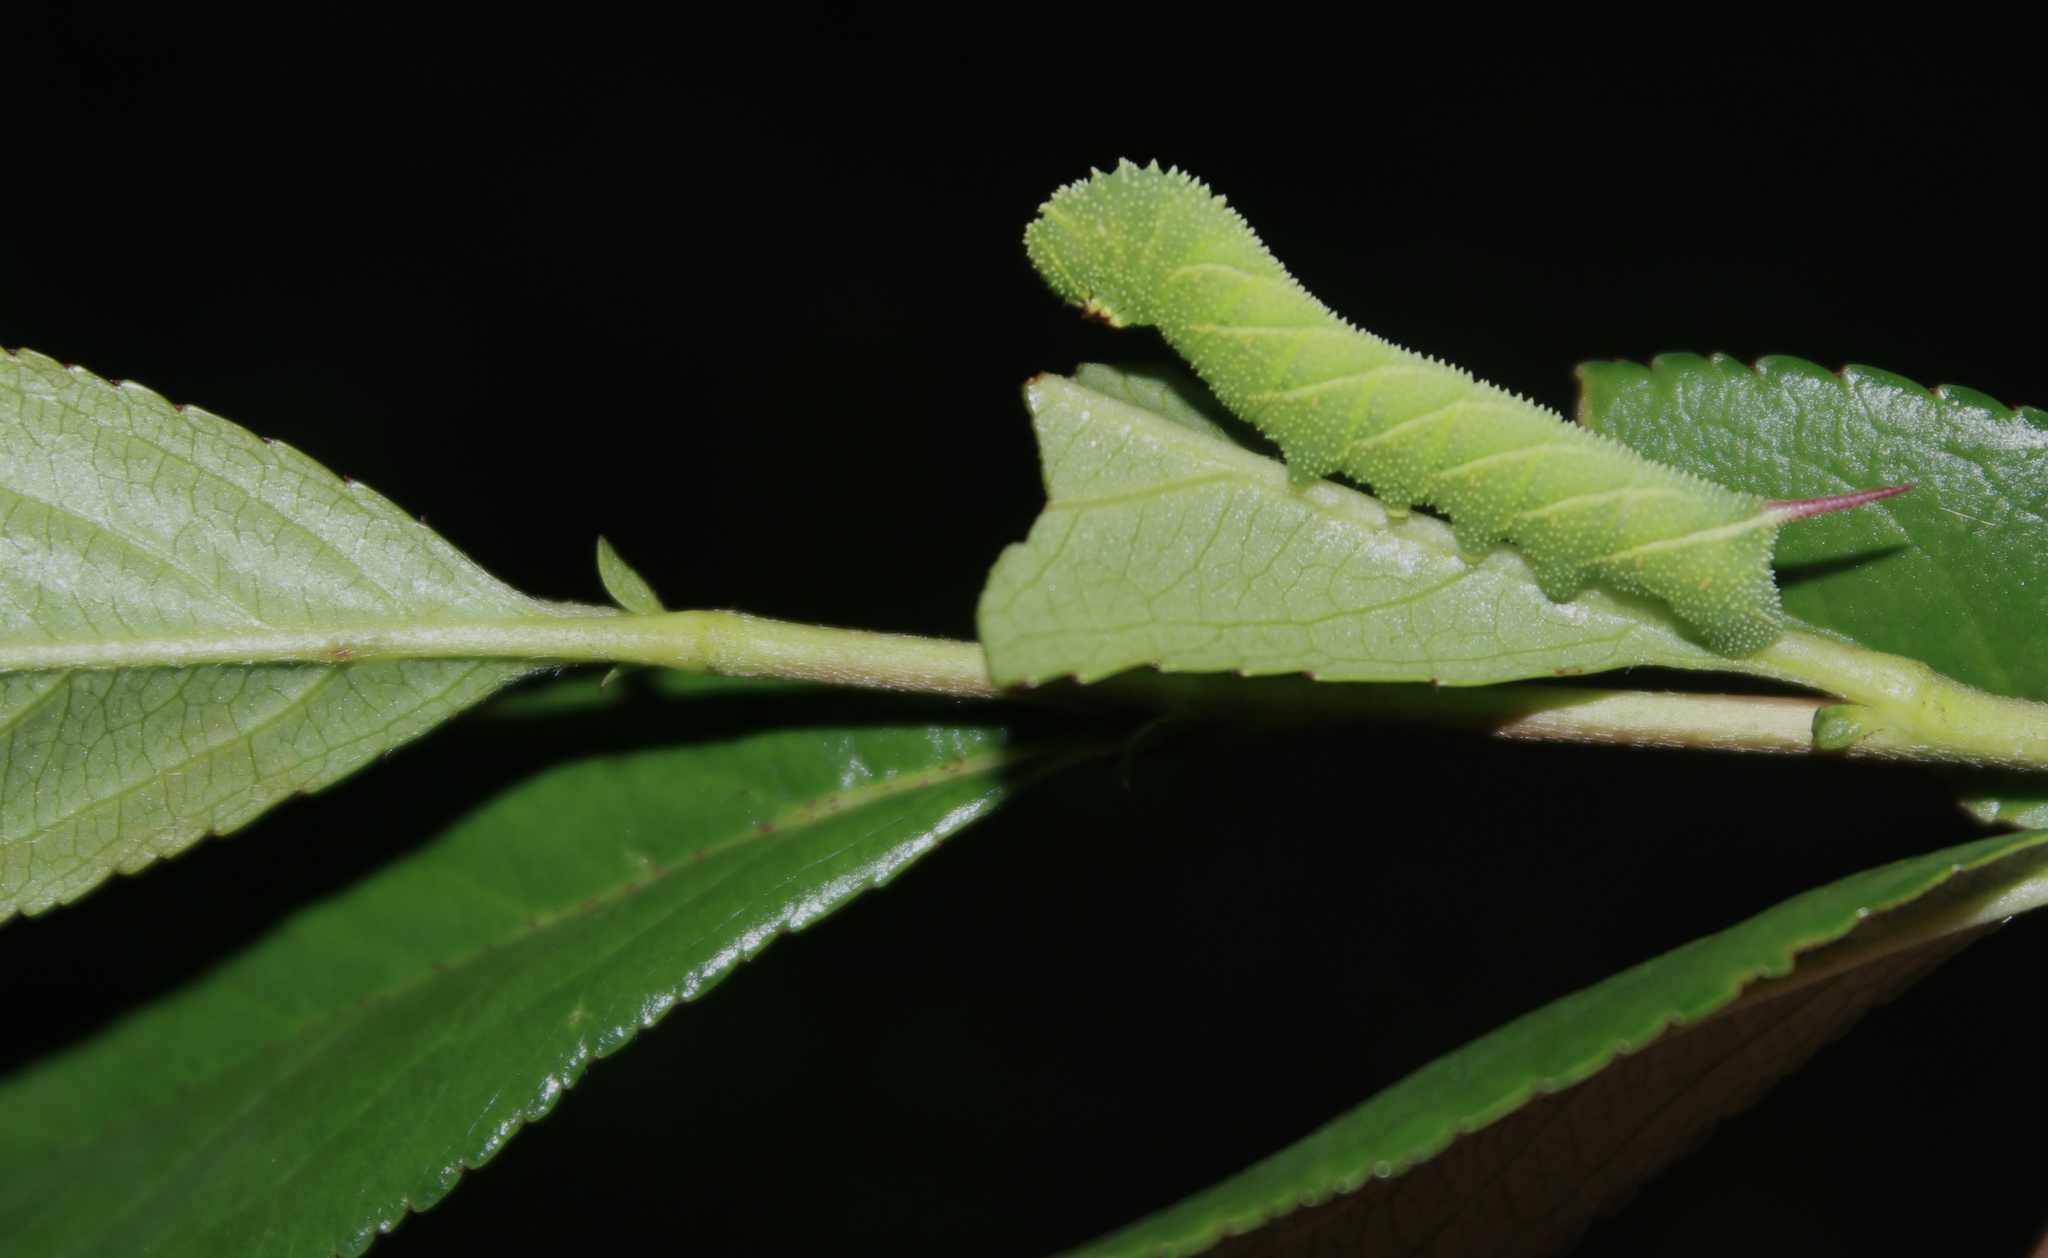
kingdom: Animalia
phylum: Arthropoda
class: Insecta
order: Lepidoptera
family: Sphingidae
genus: Sphinx
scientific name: Sphinx drupiferarum
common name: Wild cherry sphinx
